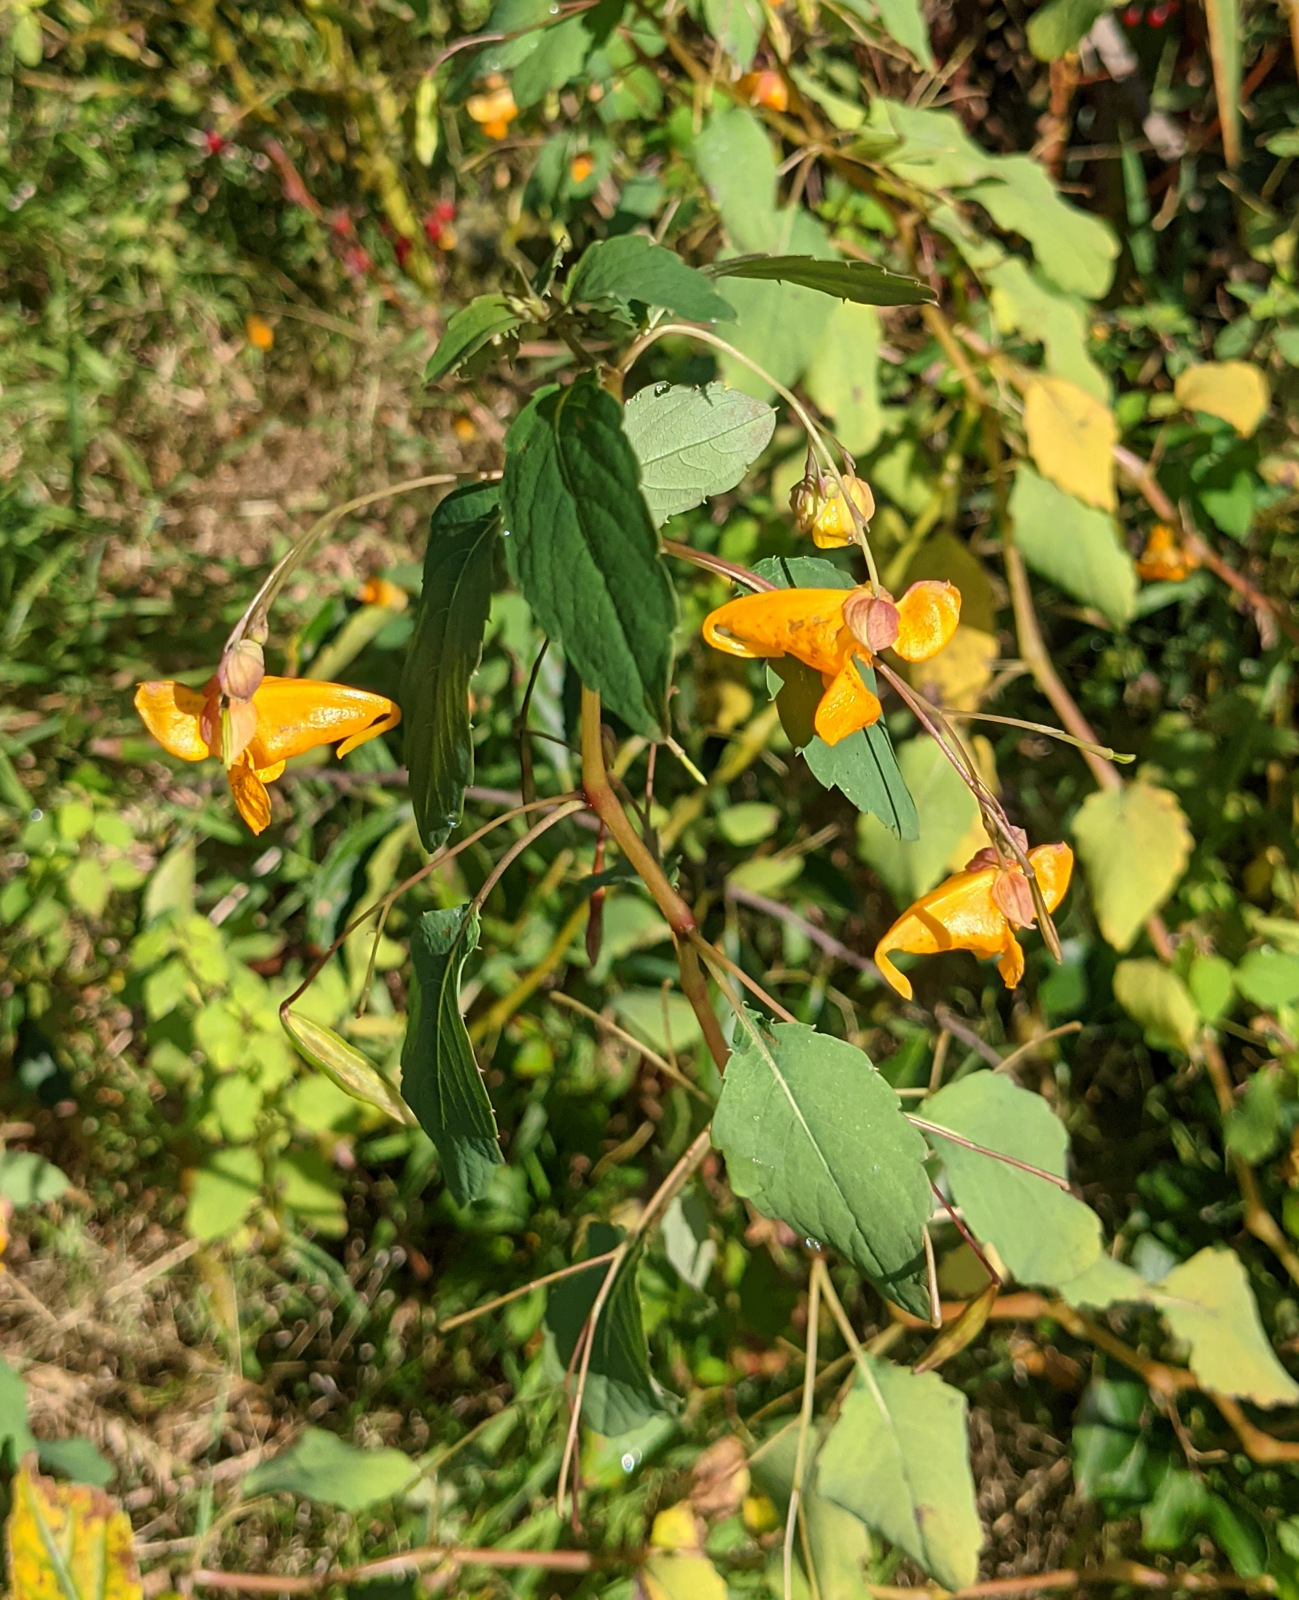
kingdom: Plantae
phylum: Tracheophyta
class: Magnoliopsida
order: Ericales
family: Balsaminaceae
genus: Impatiens
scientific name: Impatiens capensis
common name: Orange balsam
